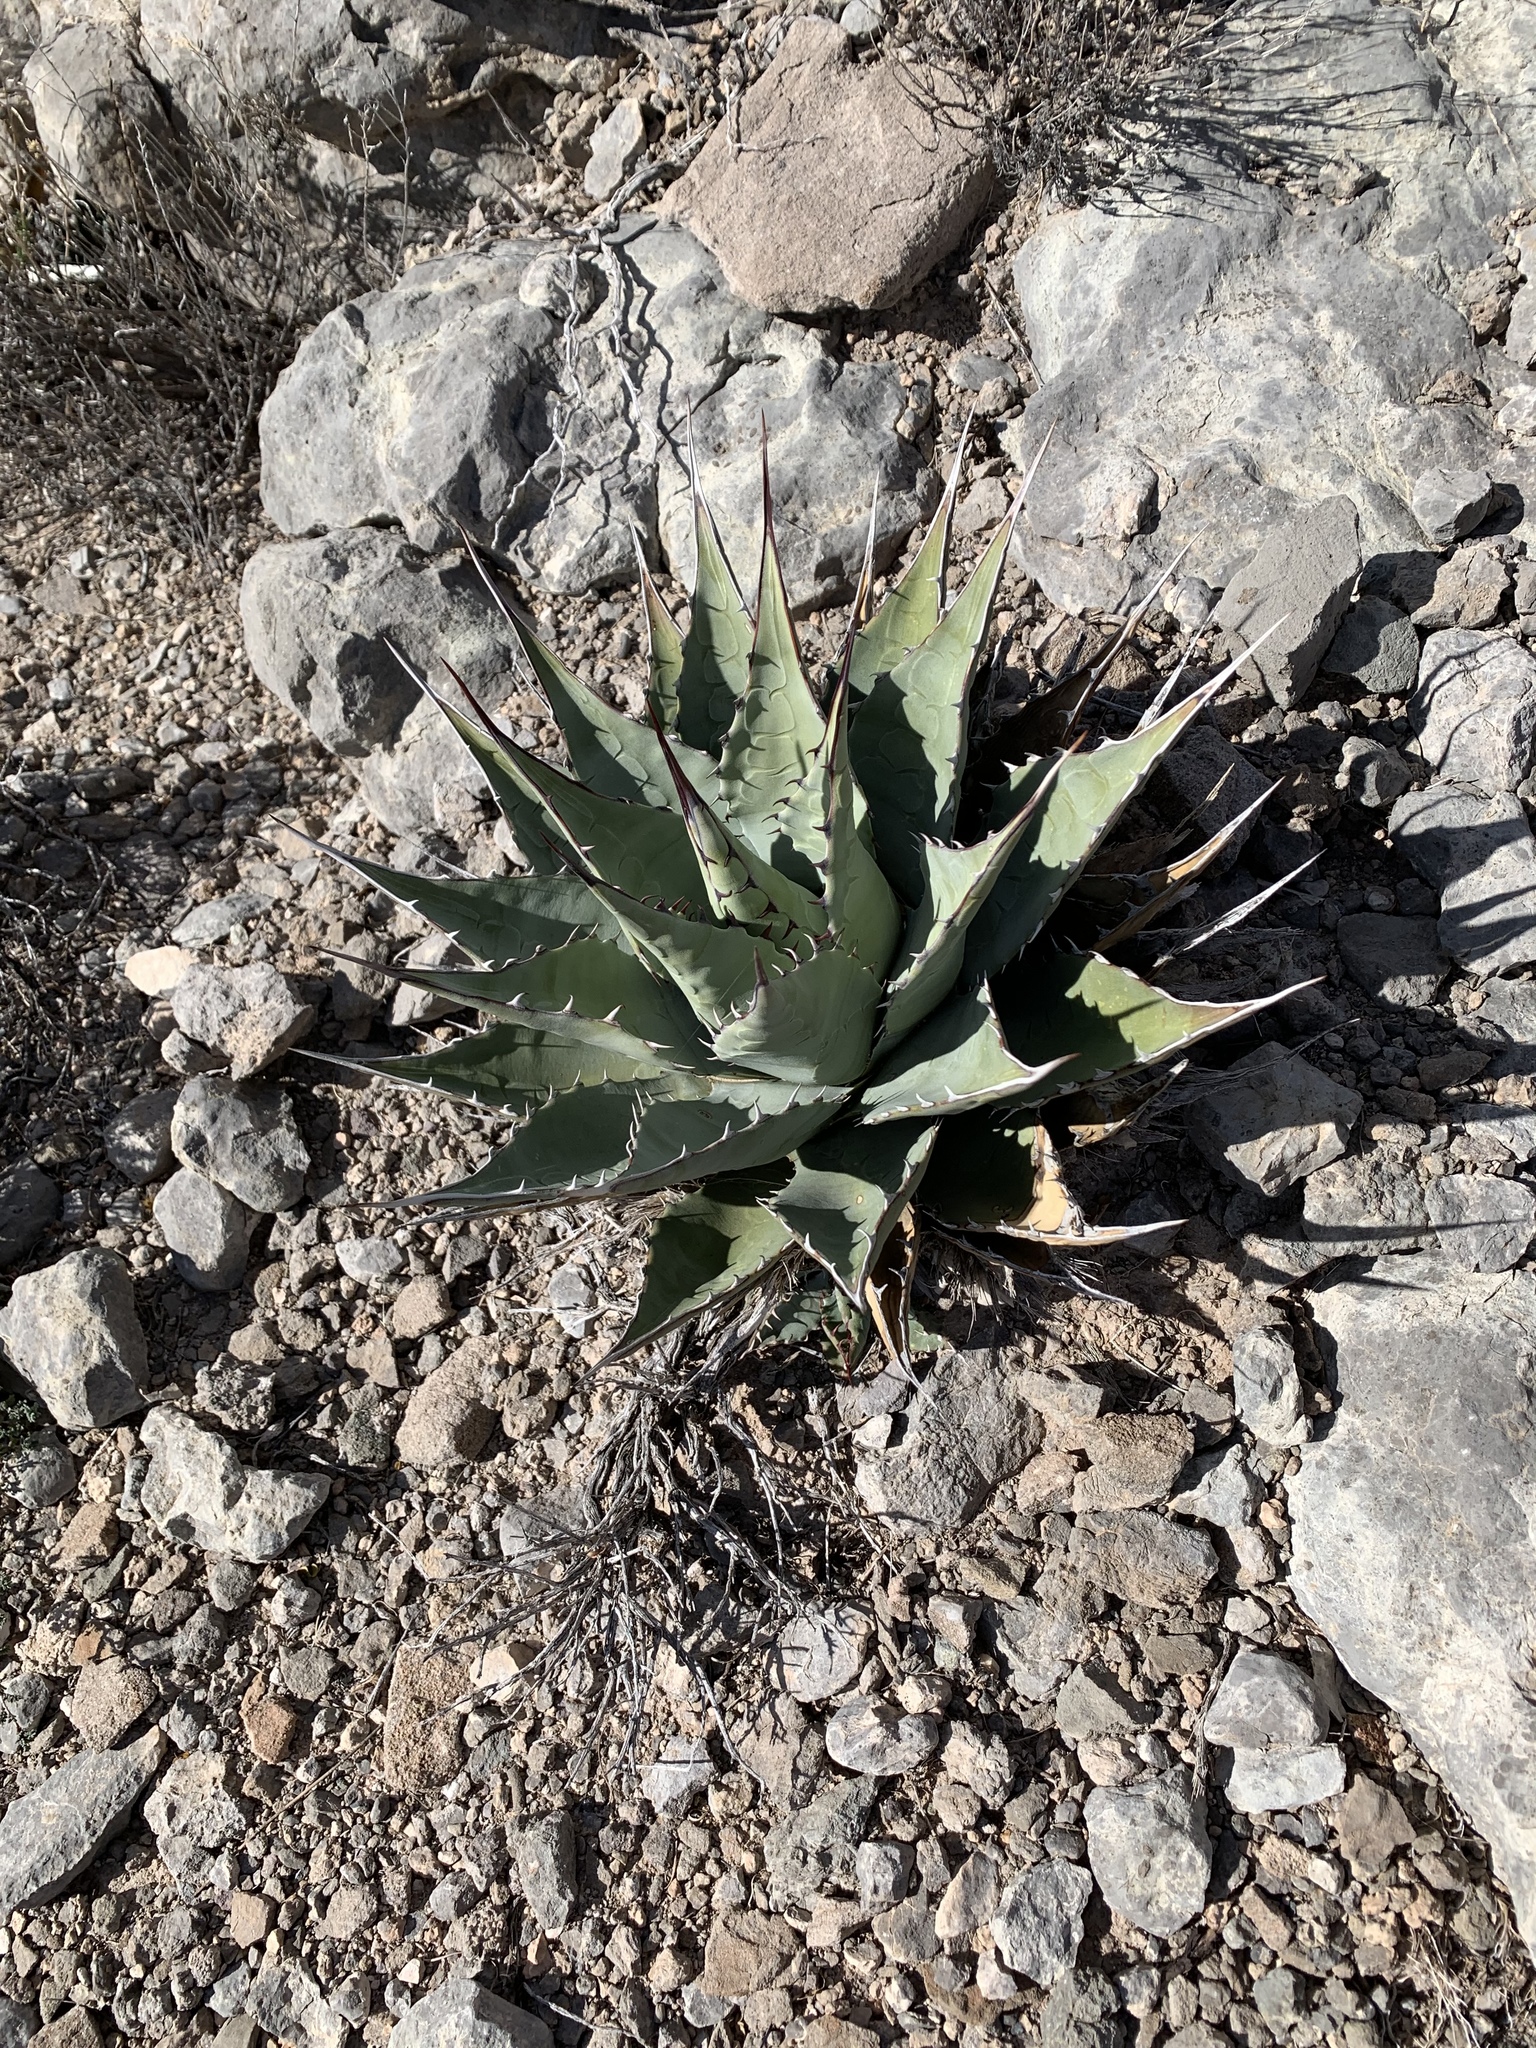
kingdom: Plantae
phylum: Tracheophyta
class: Liliopsida
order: Asparagales
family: Asparagaceae
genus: Agave
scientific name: Agave parryi
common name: Parry's agave
